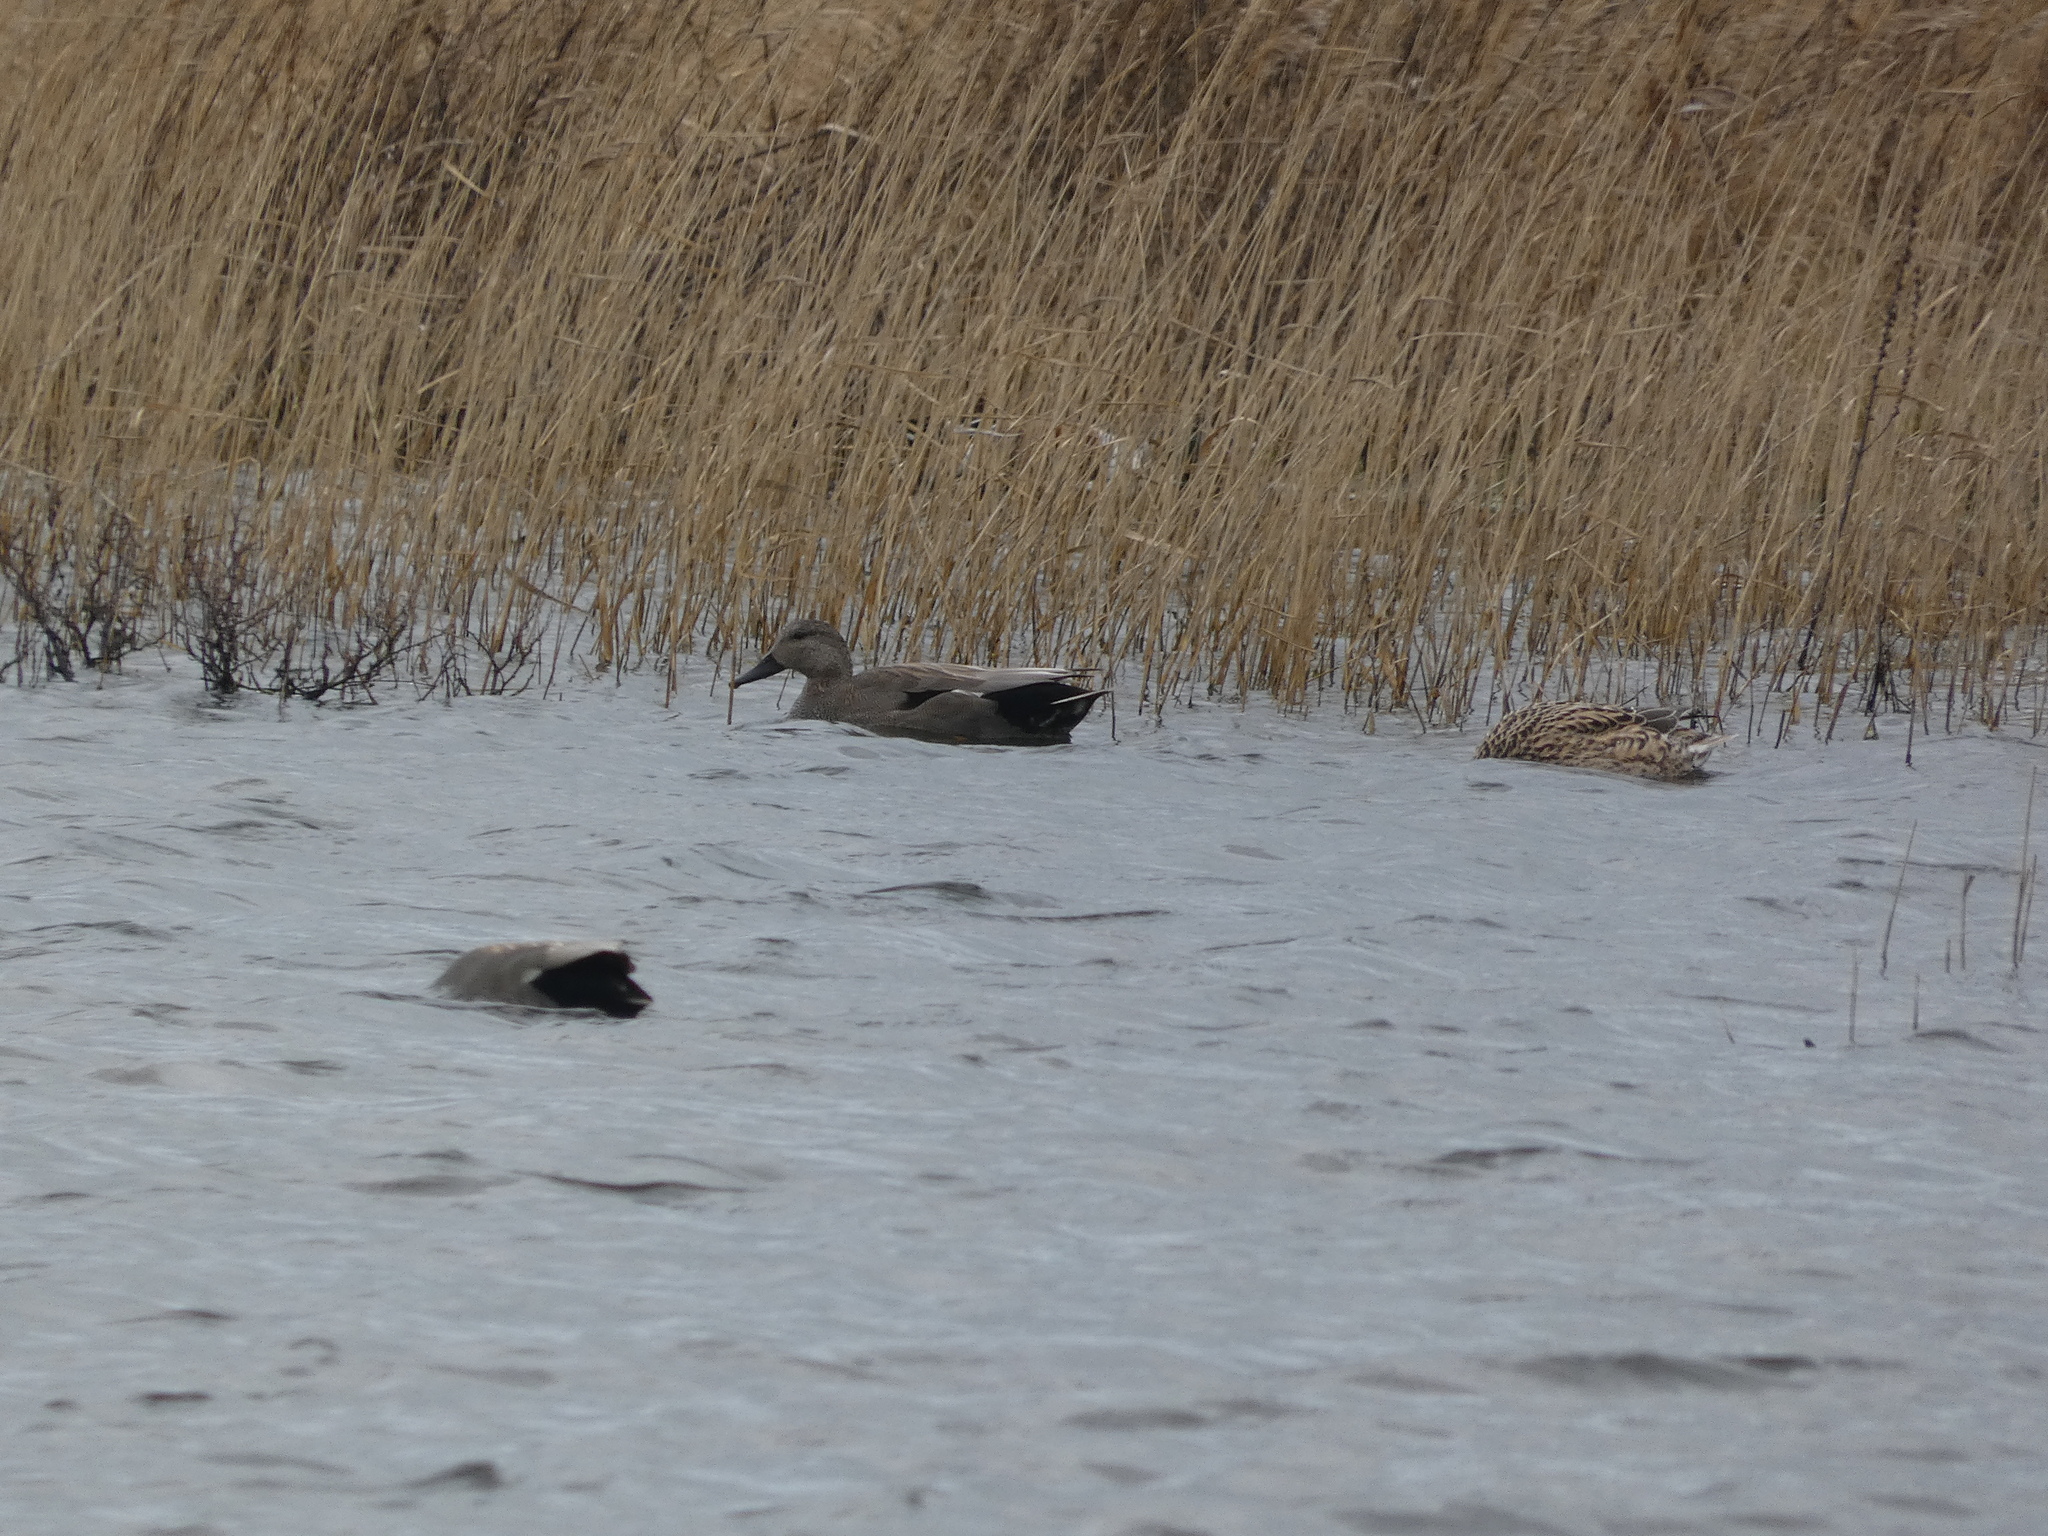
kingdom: Animalia
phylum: Chordata
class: Aves
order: Anseriformes
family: Anatidae
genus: Mareca
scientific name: Mareca strepera
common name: Gadwall
